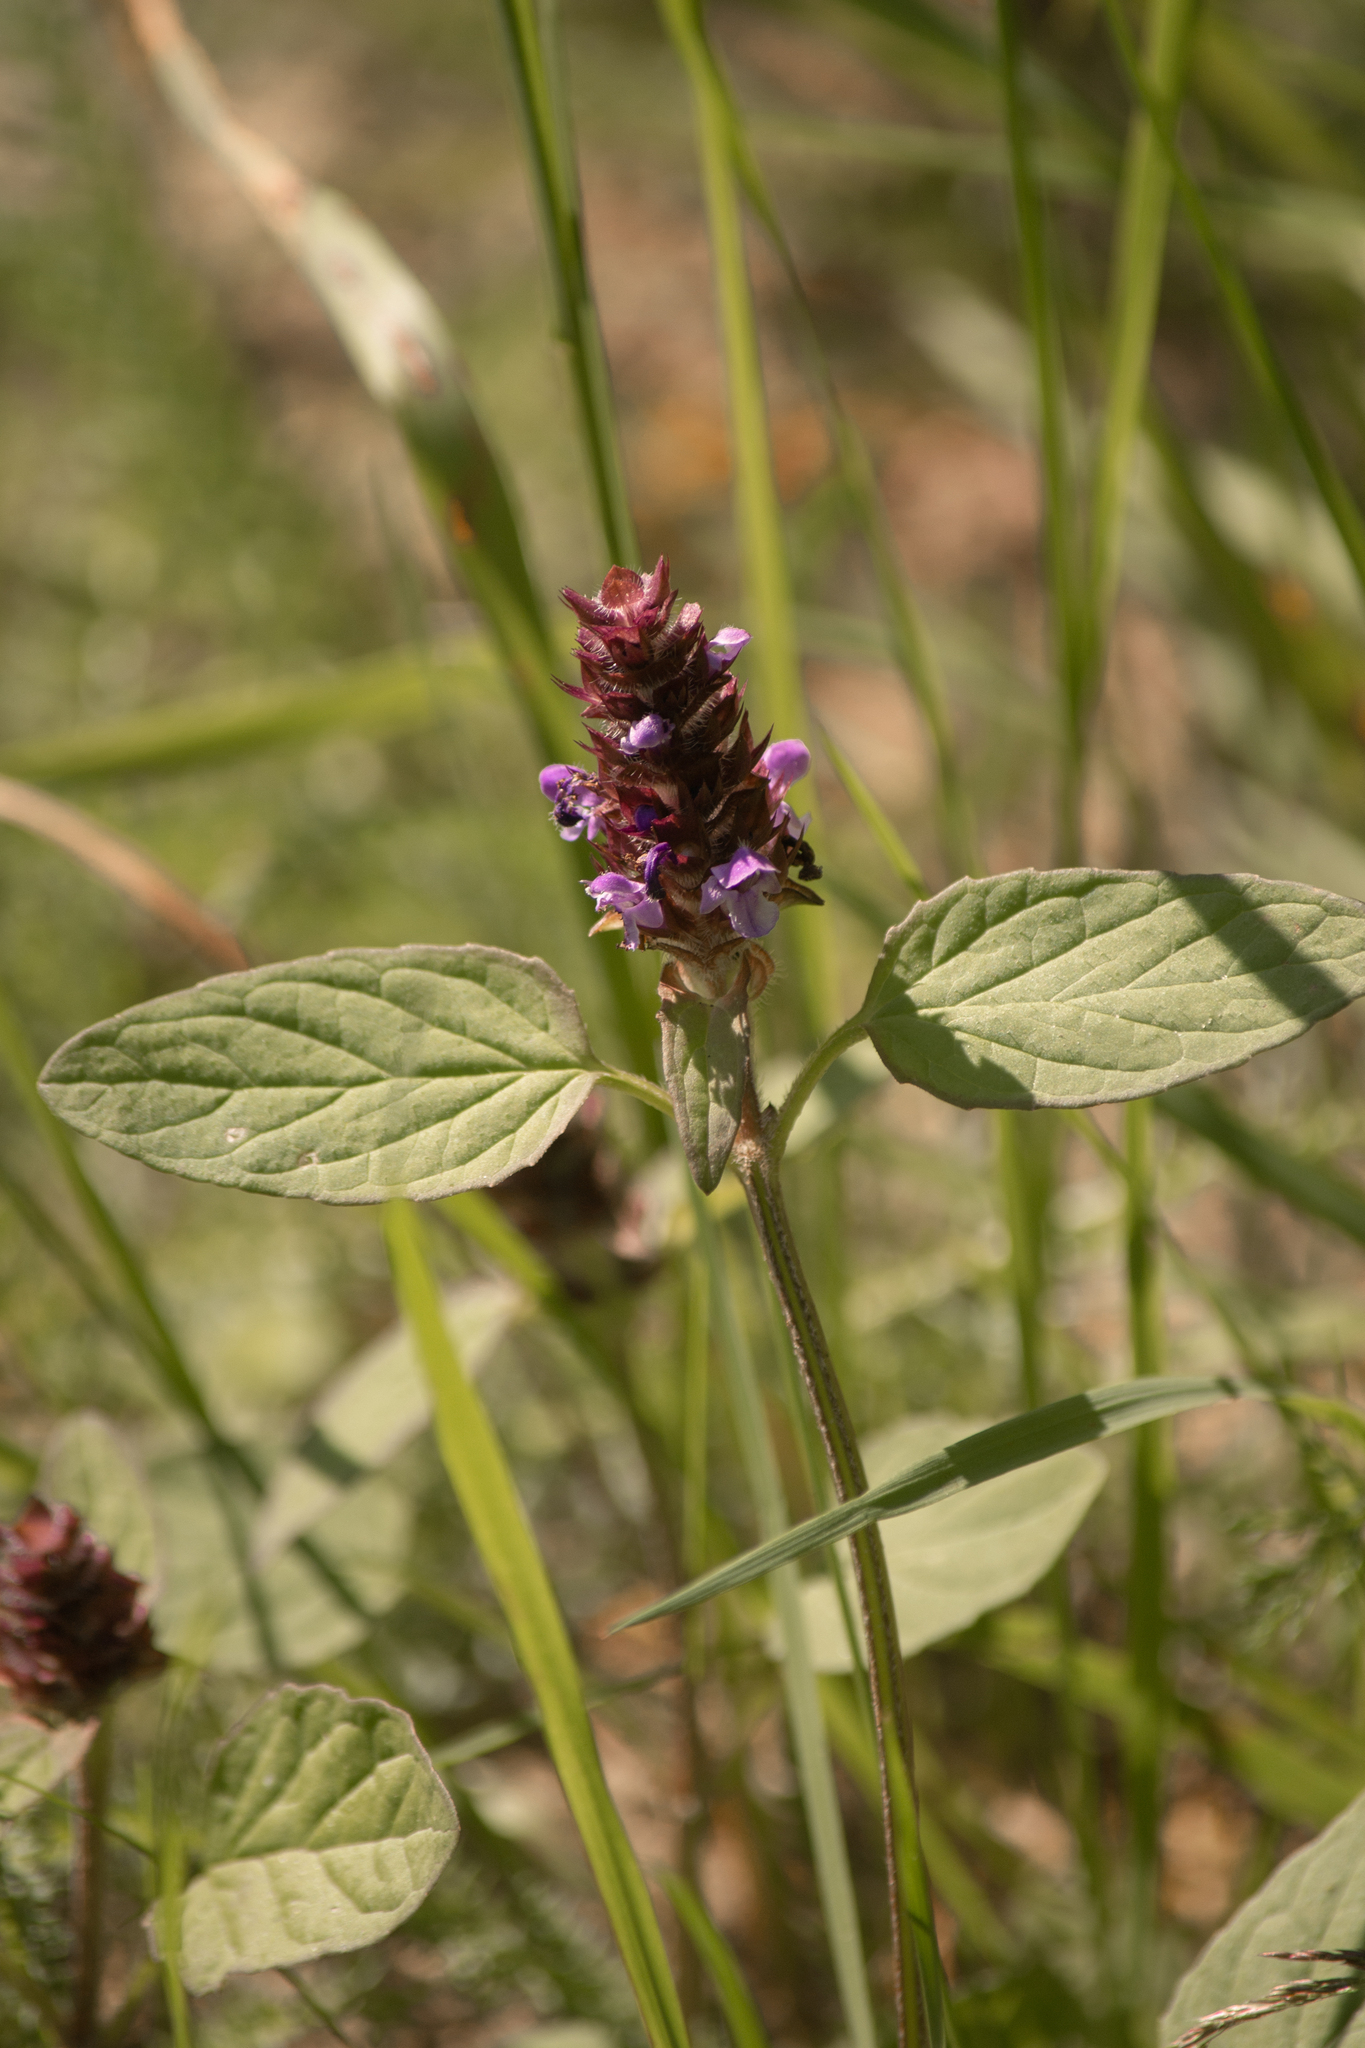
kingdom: Plantae
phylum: Tracheophyta
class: Magnoliopsida
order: Lamiales
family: Lamiaceae
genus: Prunella
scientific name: Prunella vulgaris
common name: Heal-all
